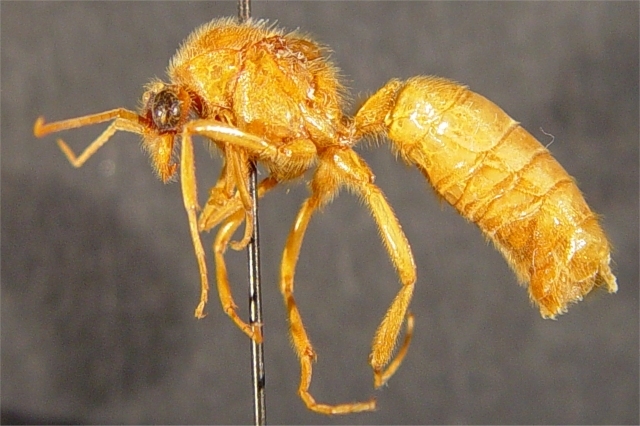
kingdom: Animalia
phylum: Arthropoda
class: Insecta
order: Hymenoptera
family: Formicidae
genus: Labidus
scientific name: Labidus coecus
